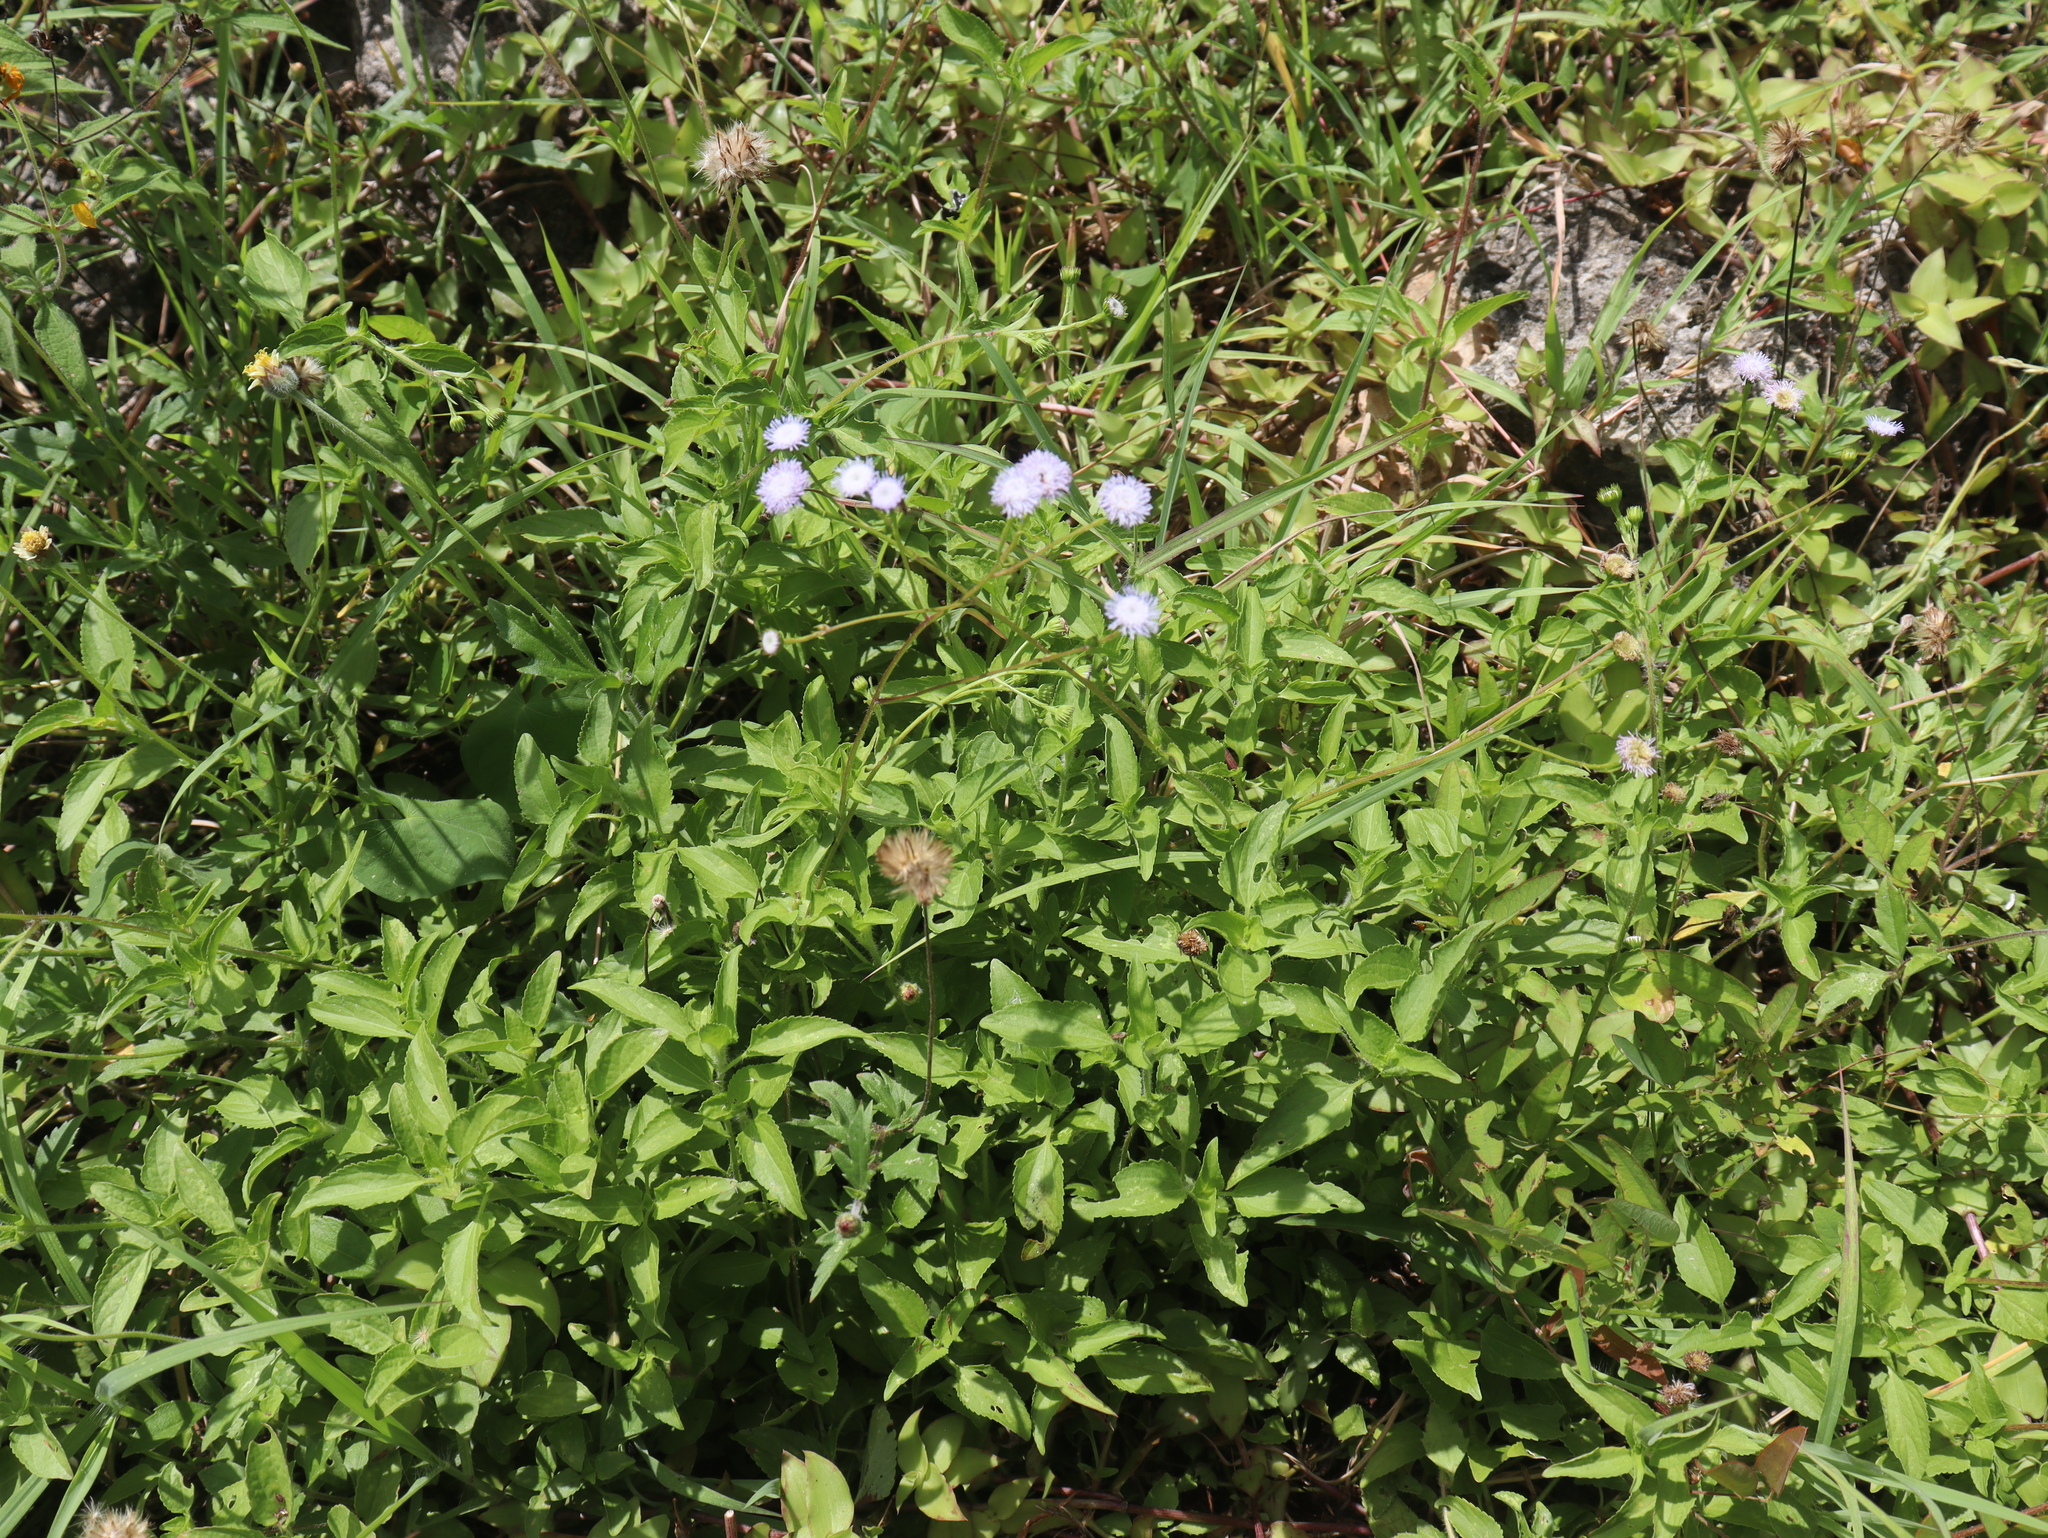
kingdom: Plantae
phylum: Tracheophyta
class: Magnoliopsida
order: Asterales
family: Asteraceae
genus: Ageratum
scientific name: Ageratum gaumeri
